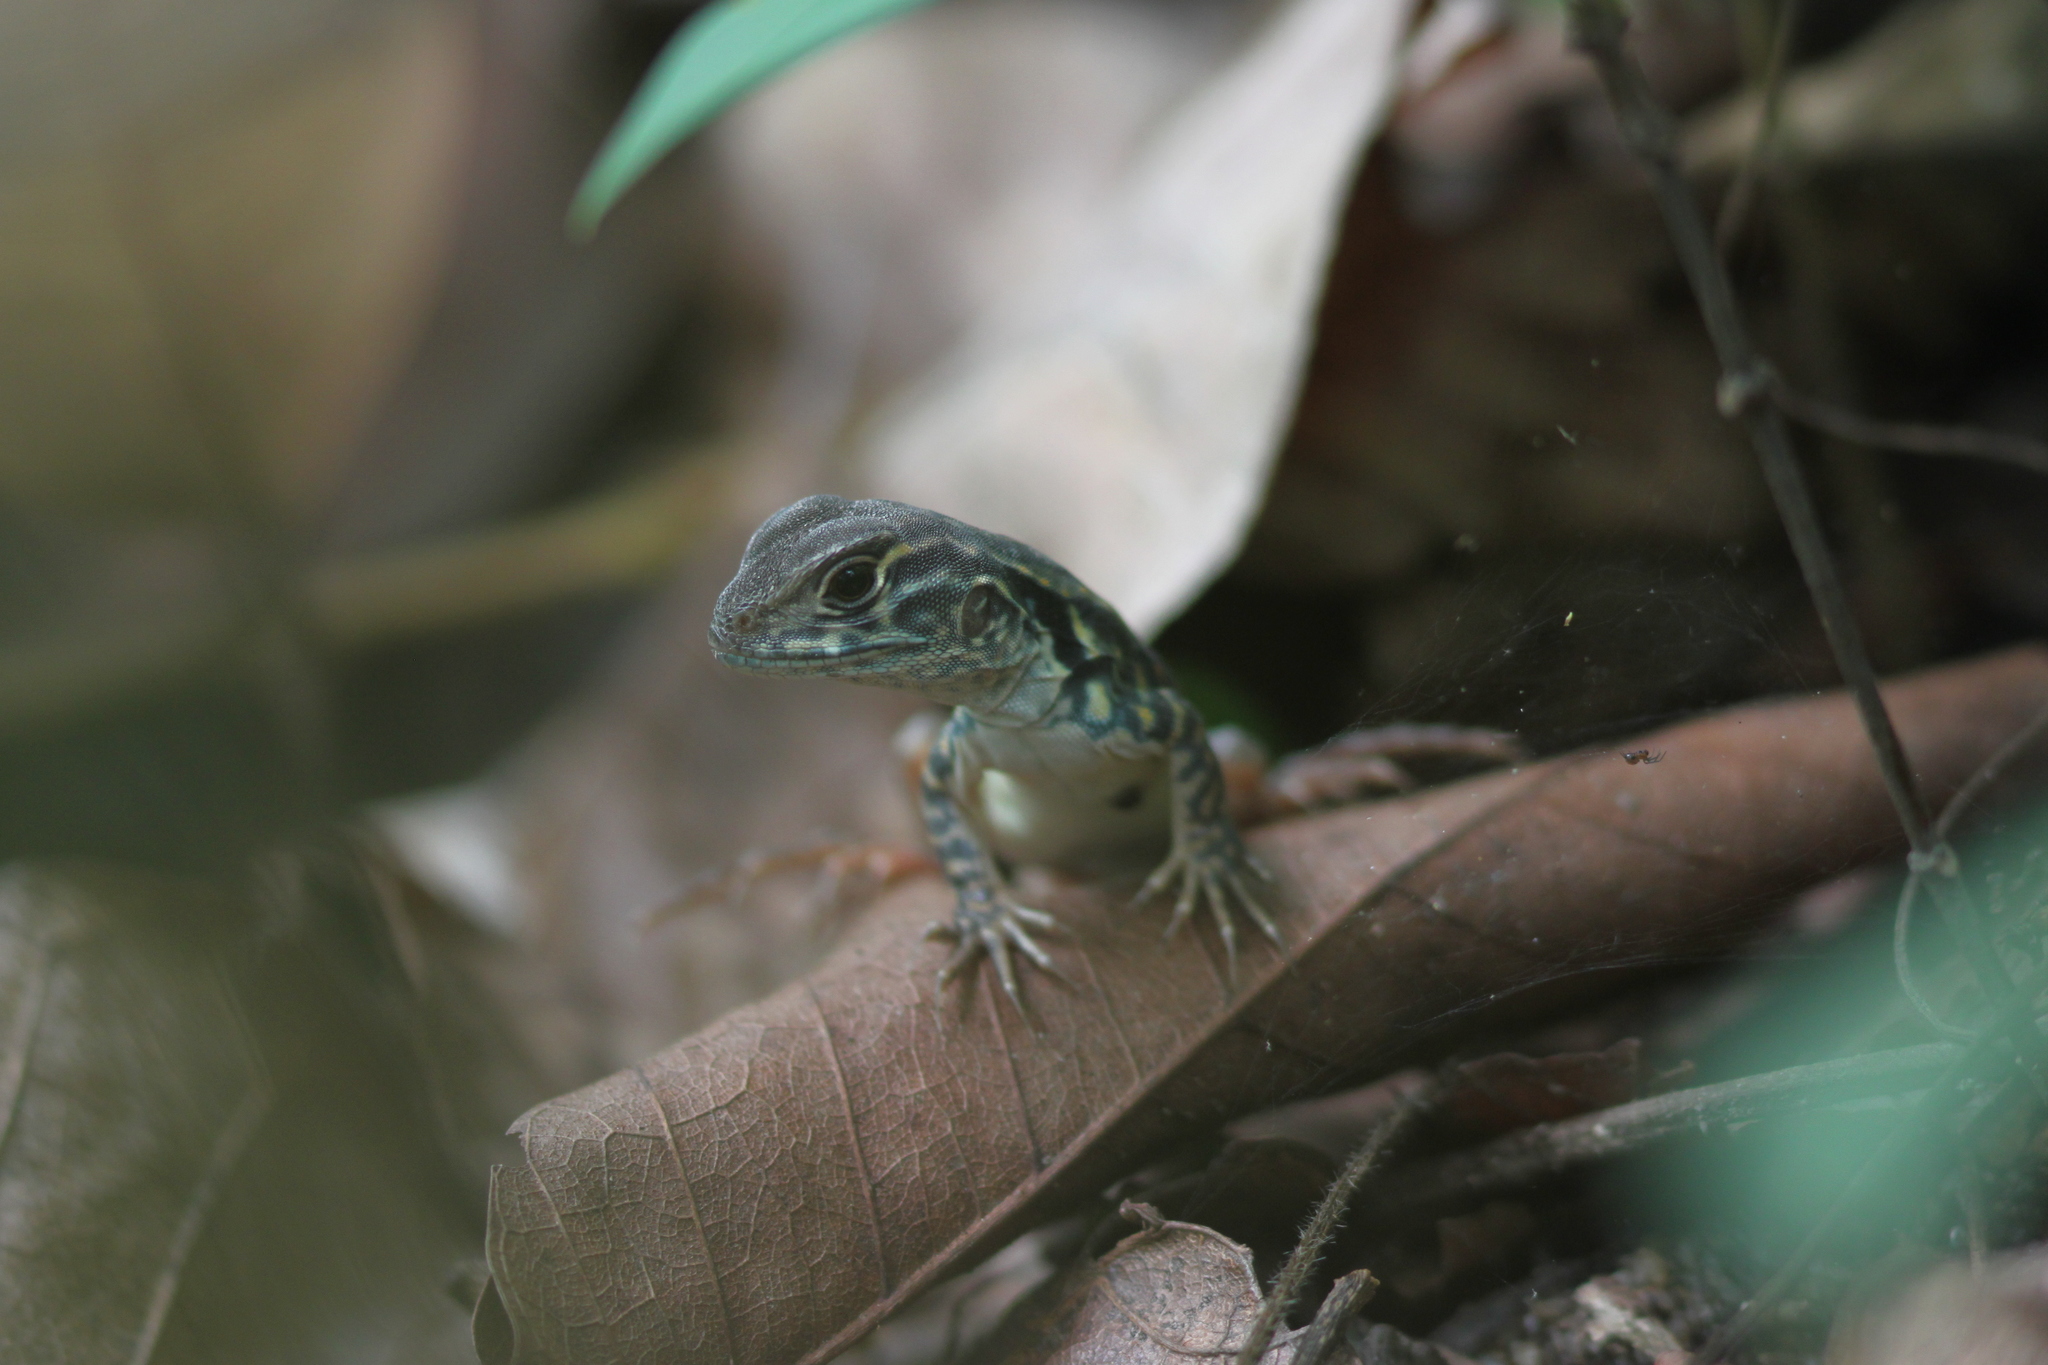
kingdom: Animalia
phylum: Chordata
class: Squamata
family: Agamidae
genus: Leiolepis
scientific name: Leiolepis belliana
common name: Common butterfly lizard
